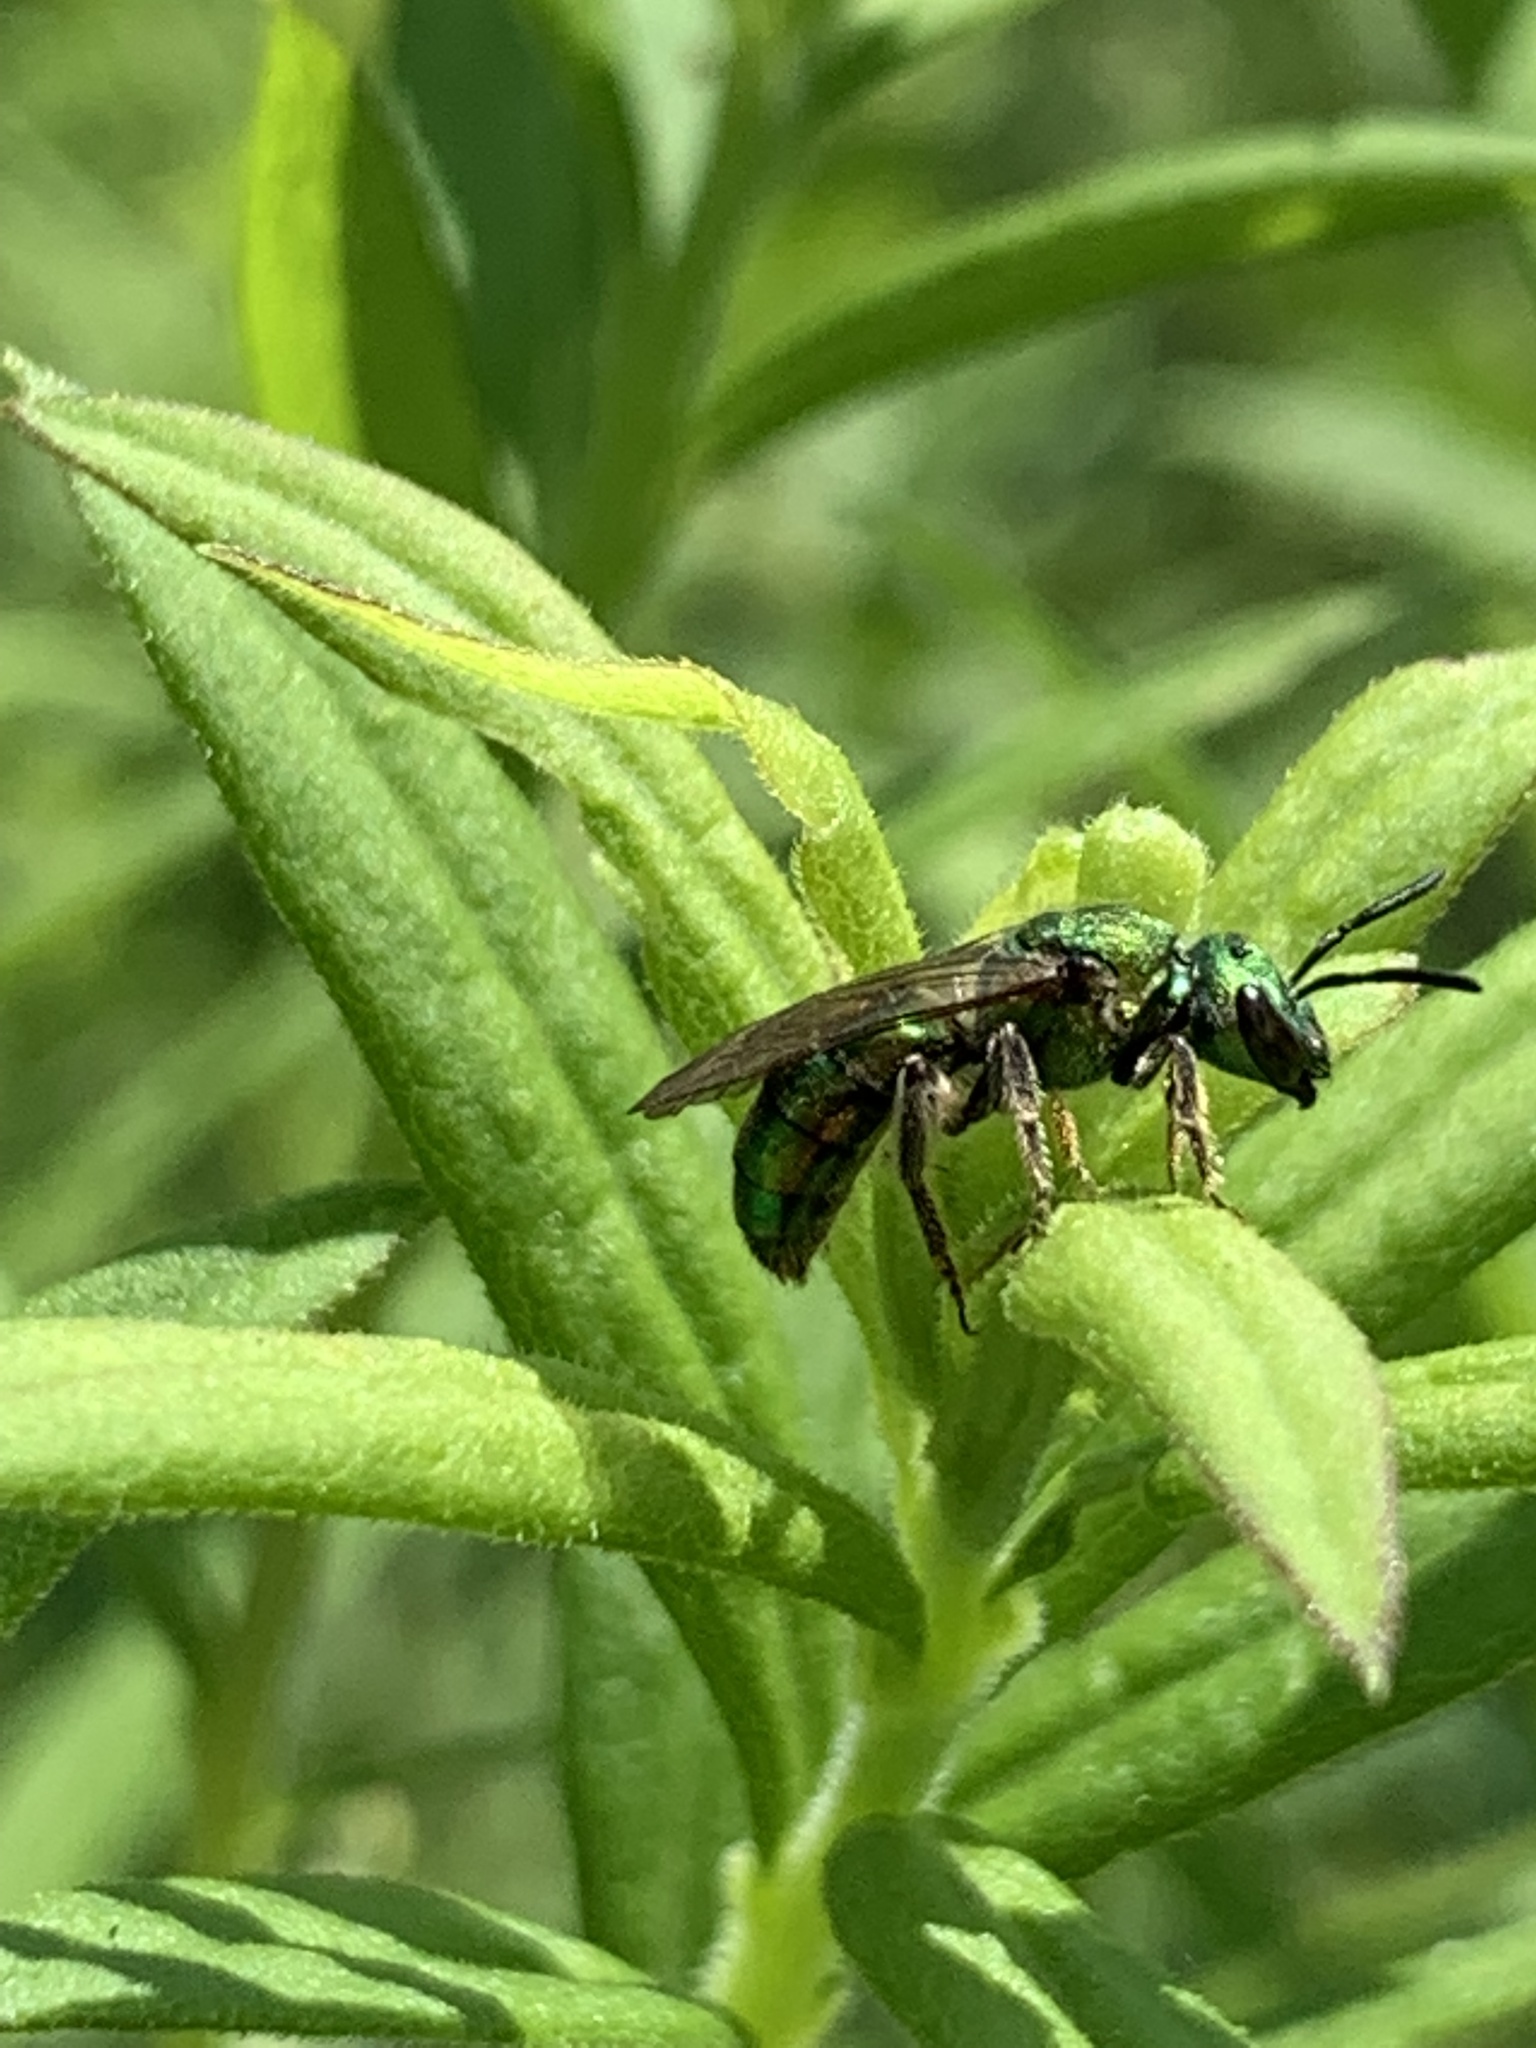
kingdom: Animalia
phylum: Arthropoda
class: Insecta
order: Hymenoptera
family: Halictidae
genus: Augochlora
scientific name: Augochlora pura
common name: Pure green sweat bee
